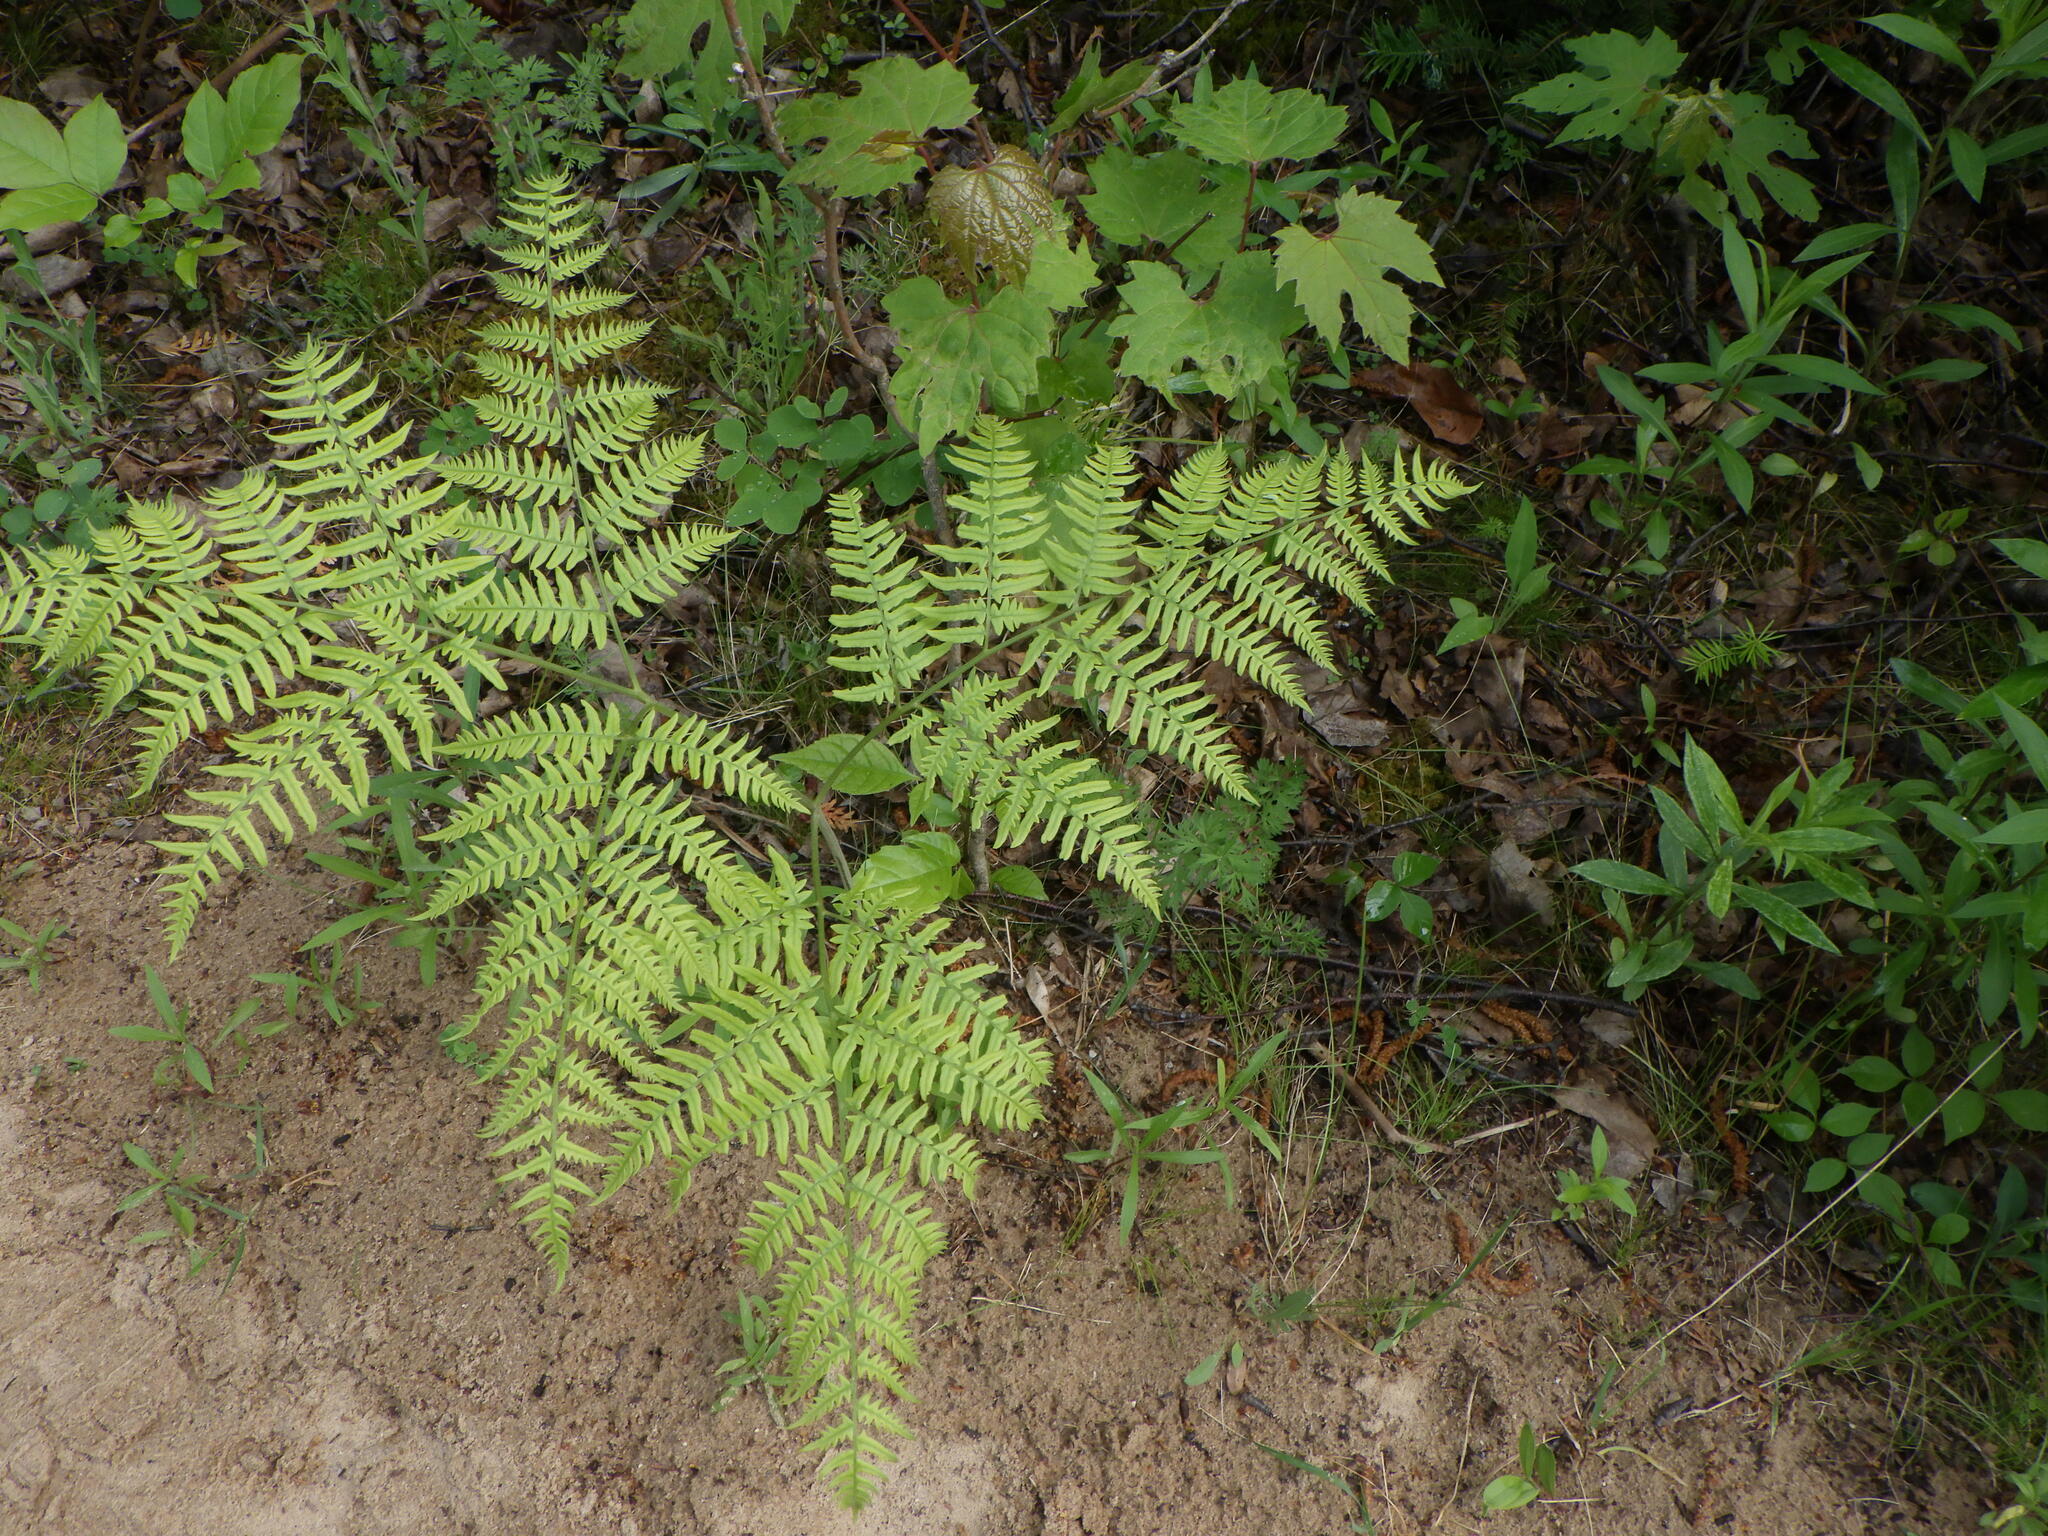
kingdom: Plantae
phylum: Tracheophyta
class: Polypodiopsida
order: Polypodiales
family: Dennstaedtiaceae
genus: Pteridium
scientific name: Pteridium aquilinum
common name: Bracken
